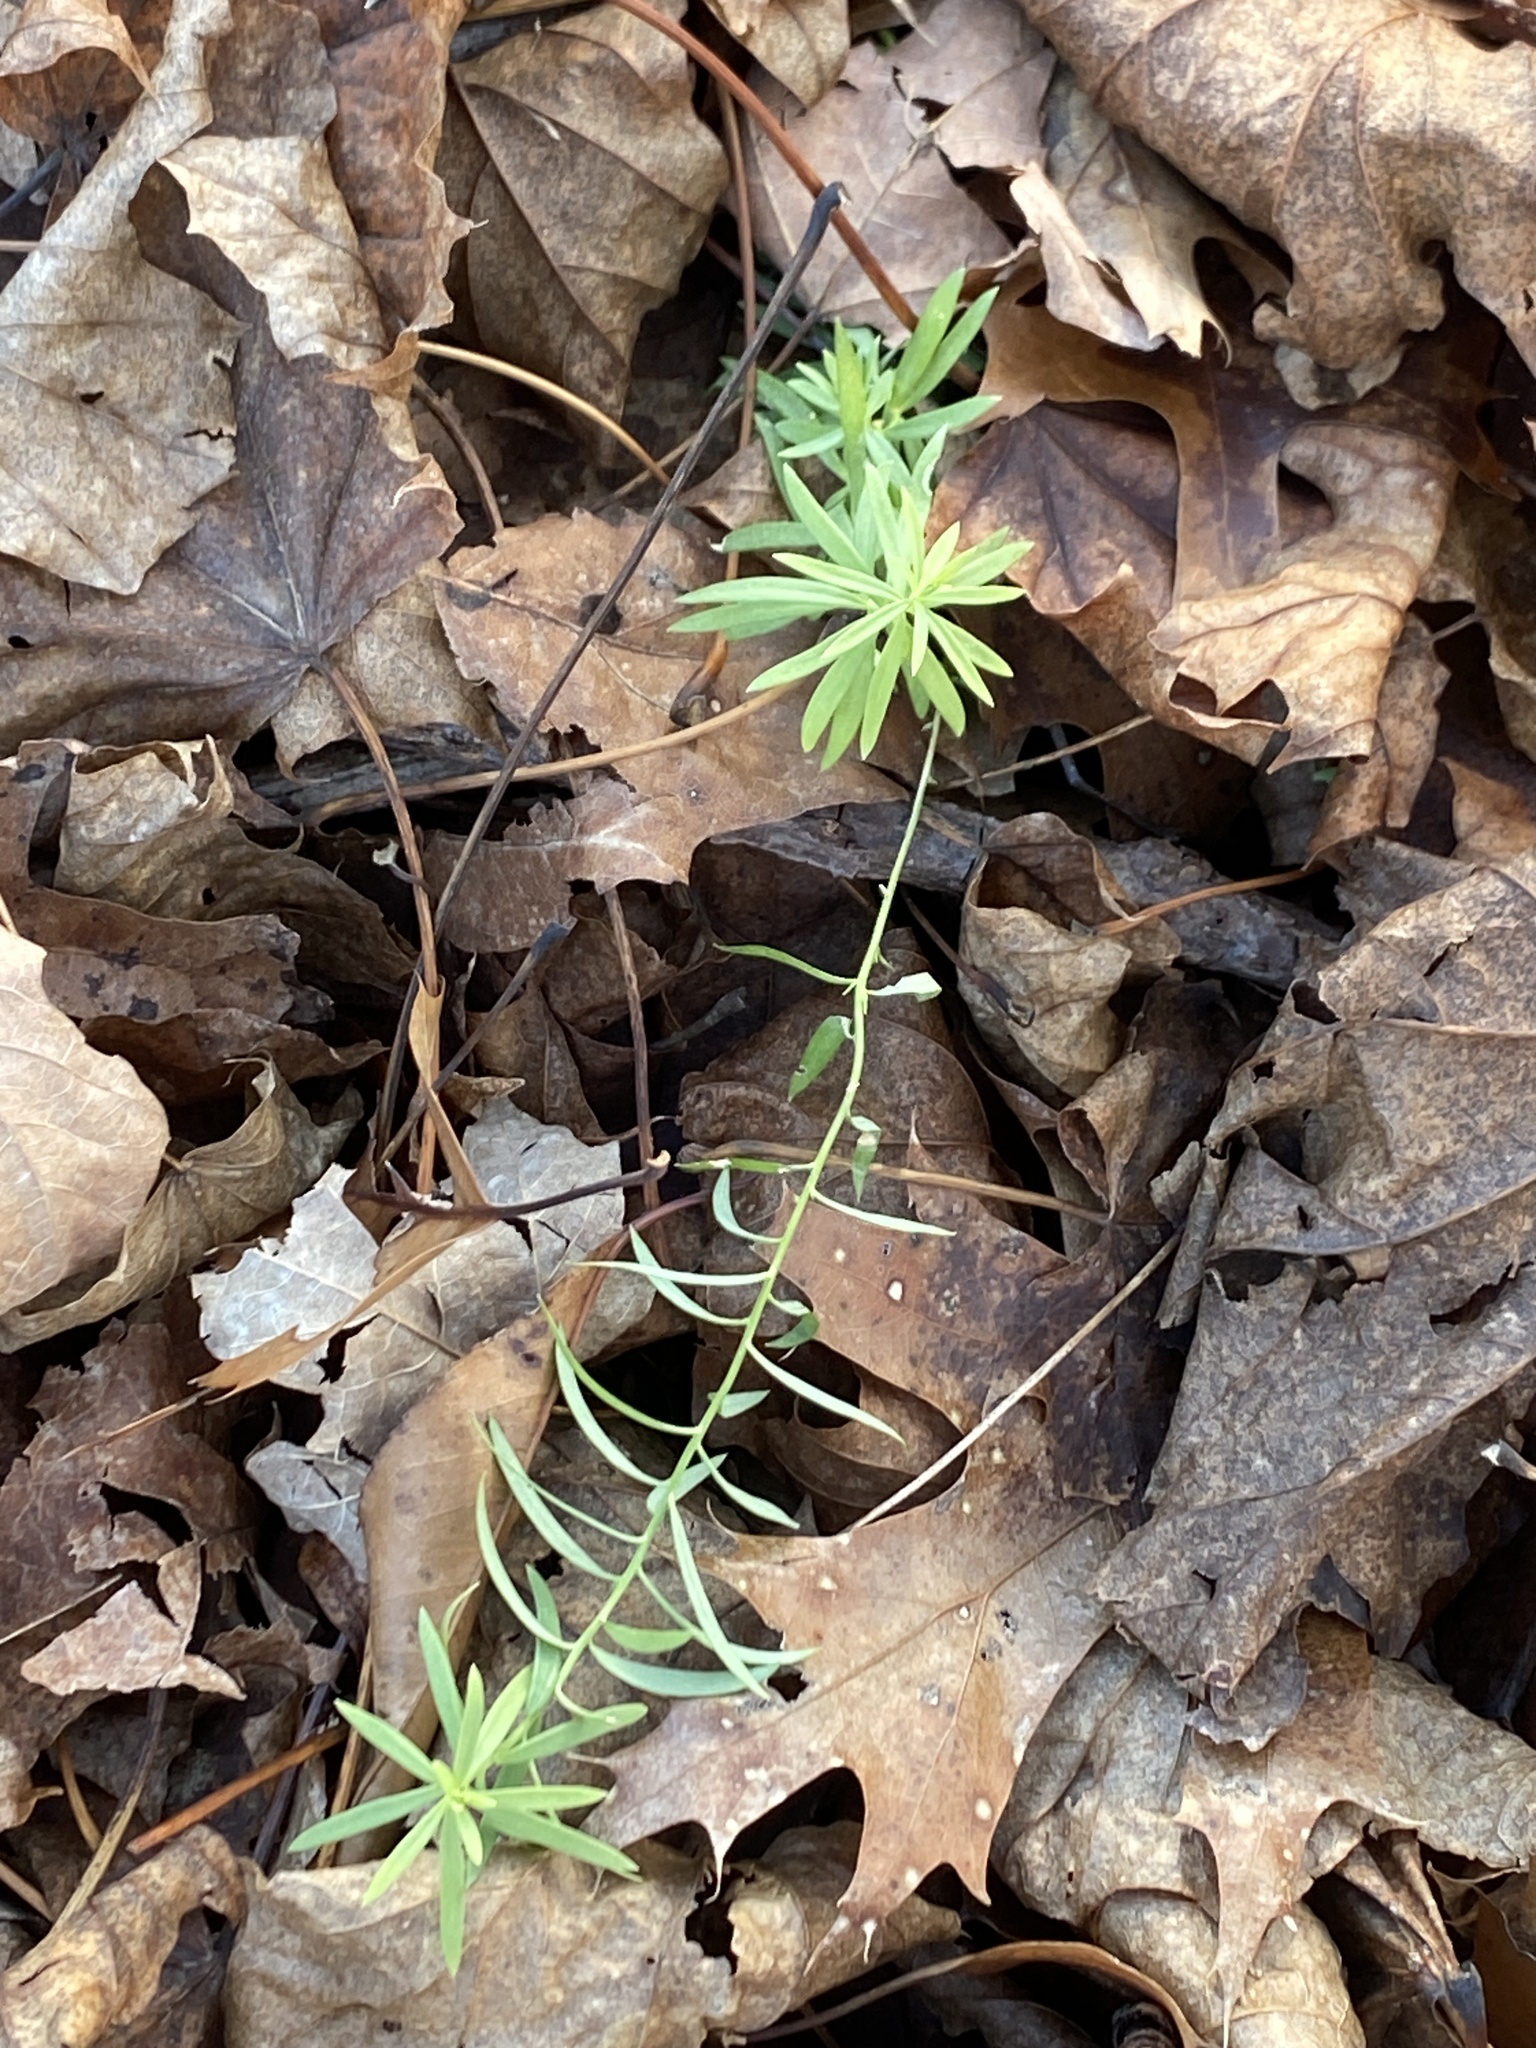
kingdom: Plantae
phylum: Tracheophyta
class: Magnoliopsida
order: Lamiales
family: Plantaginaceae
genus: Linaria
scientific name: Linaria vulgaris
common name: Butter and eggs
